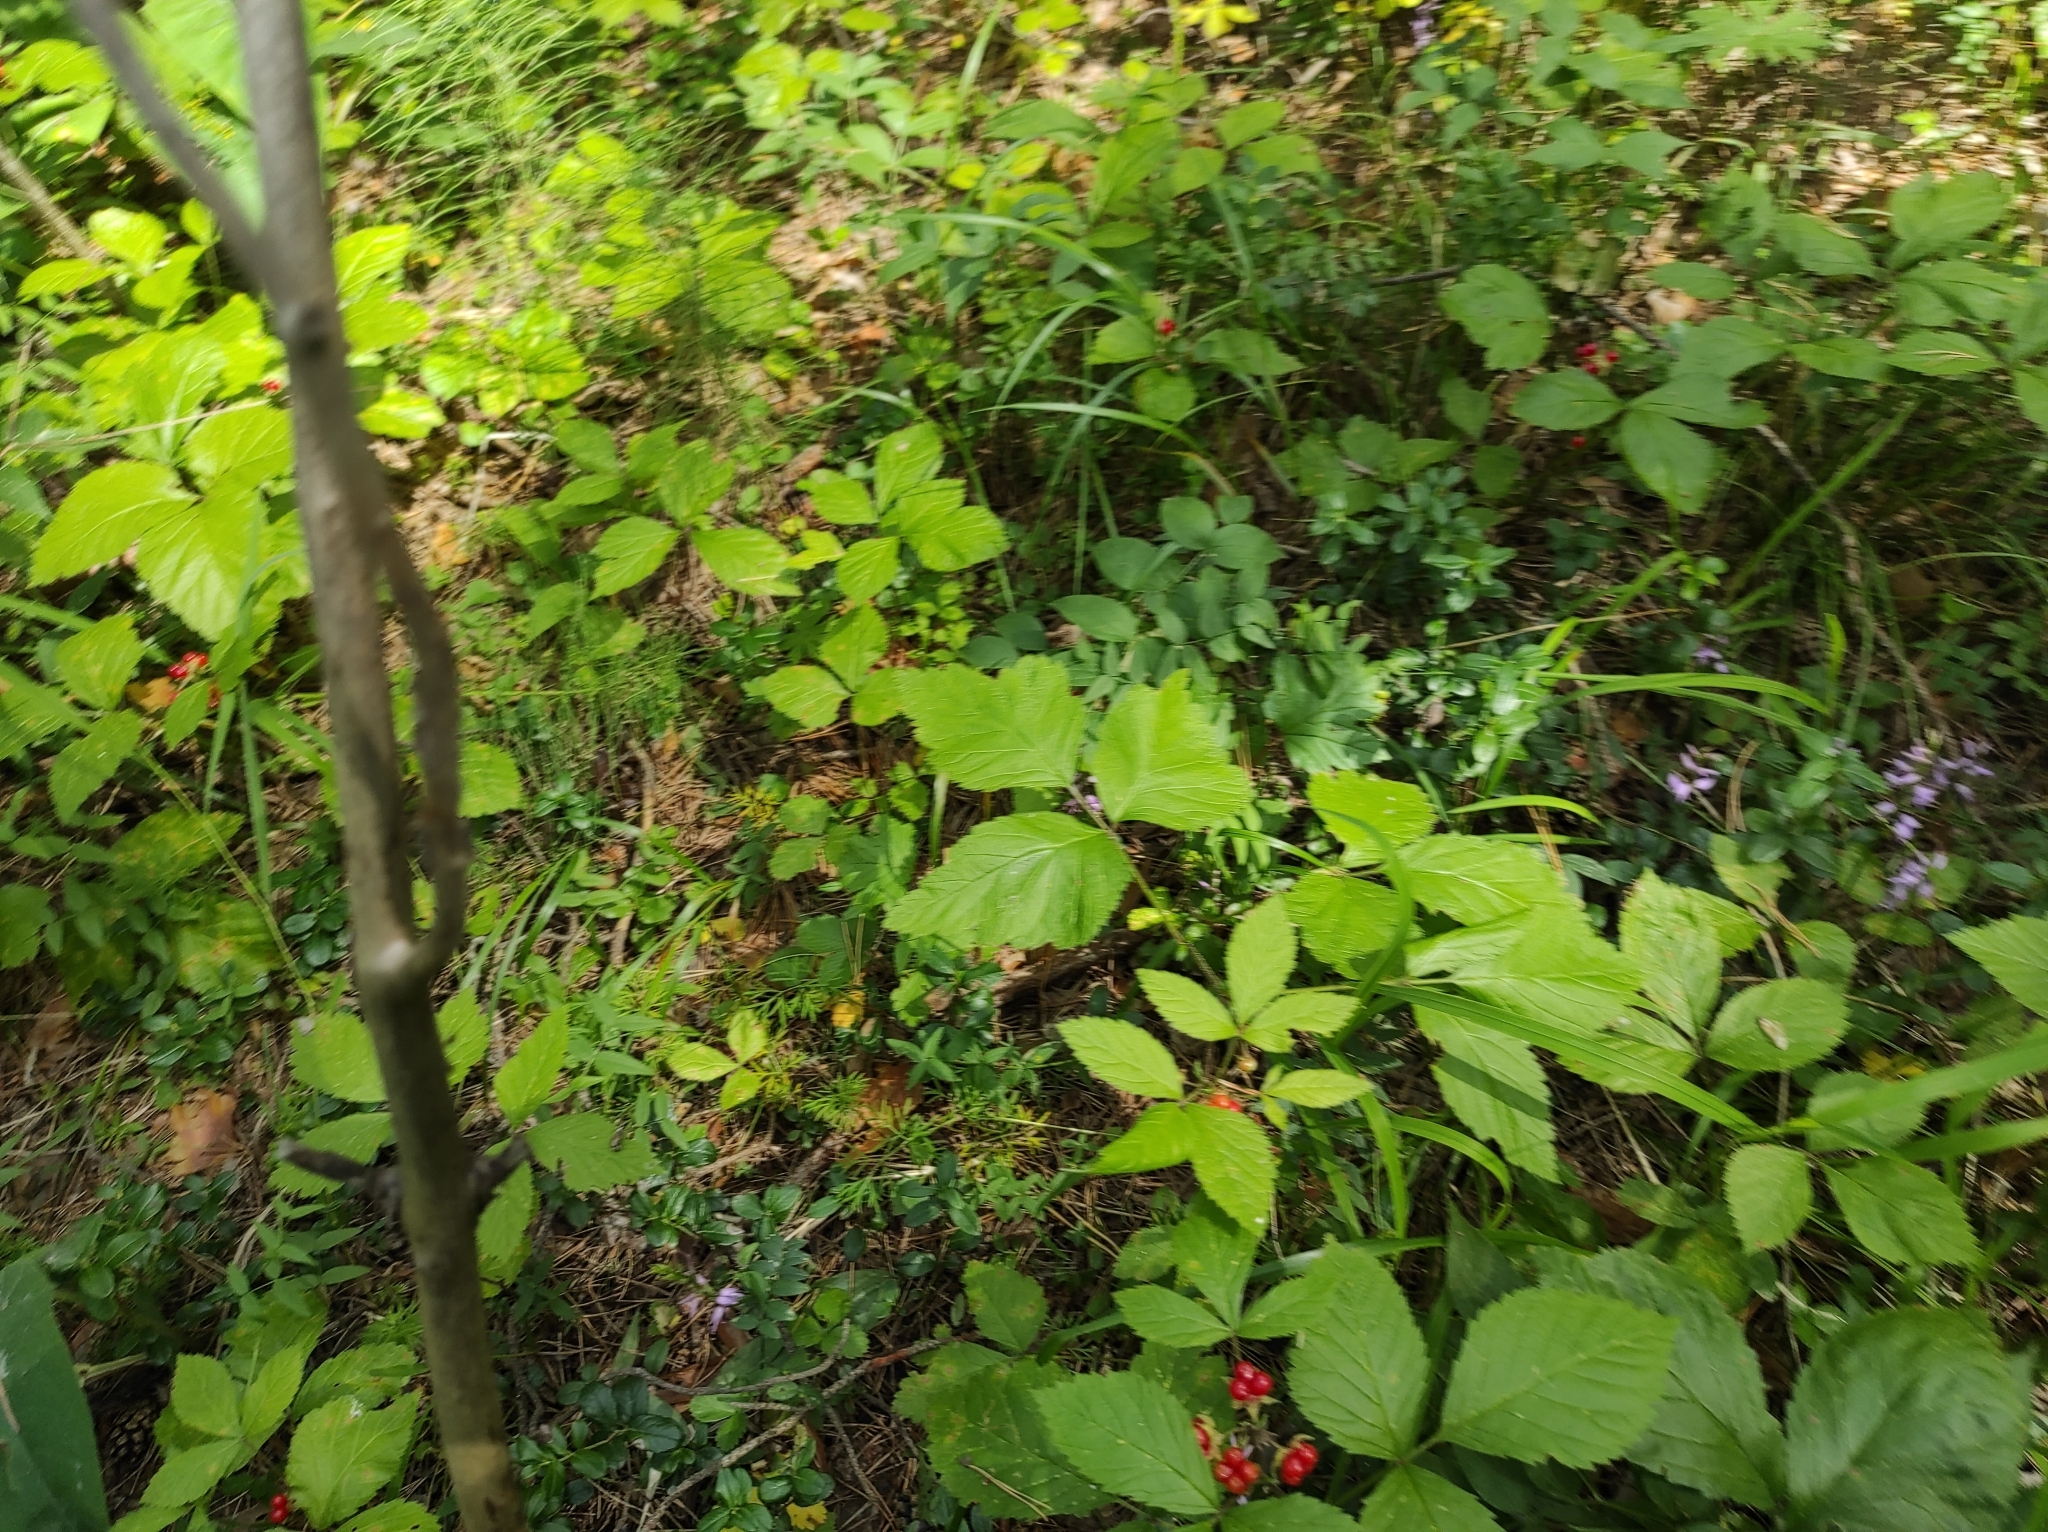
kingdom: Plantae
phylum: Tracheophyta
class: Magnoliopsida
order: Ericales
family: Ericaceae
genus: Vaccinium
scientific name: Vaccinium vitis-idaea
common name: Cowberry
